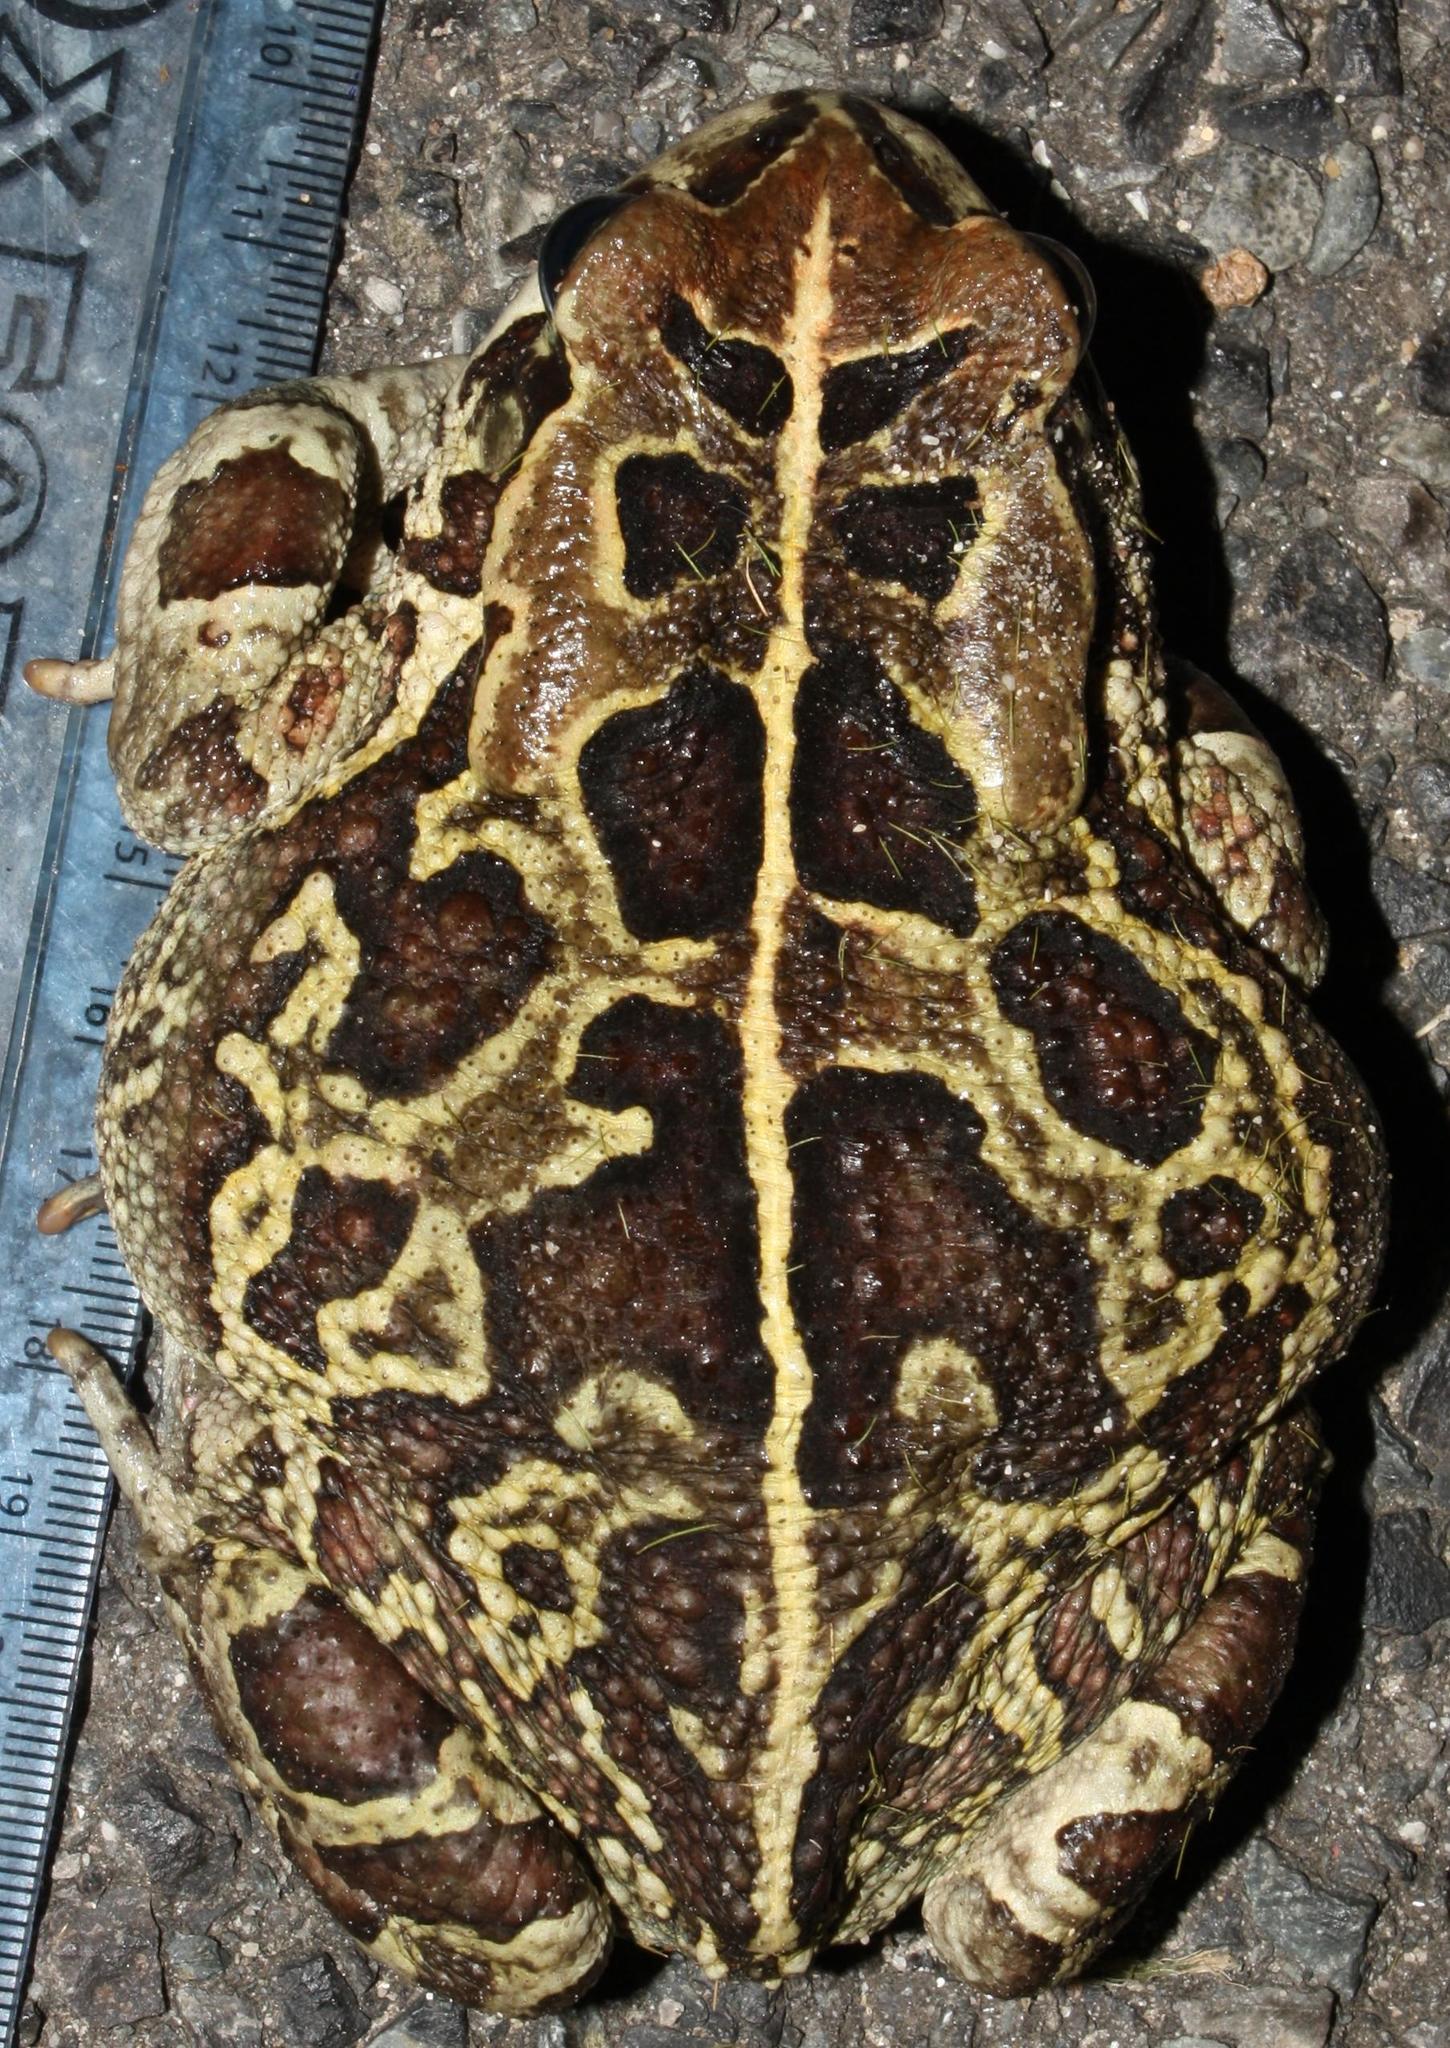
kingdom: Animalia
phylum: Chordata
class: Amphibia
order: Anura
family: Bufonidae
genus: Sclerophrys
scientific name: Sclerophrys pantherina
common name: Panther toad
